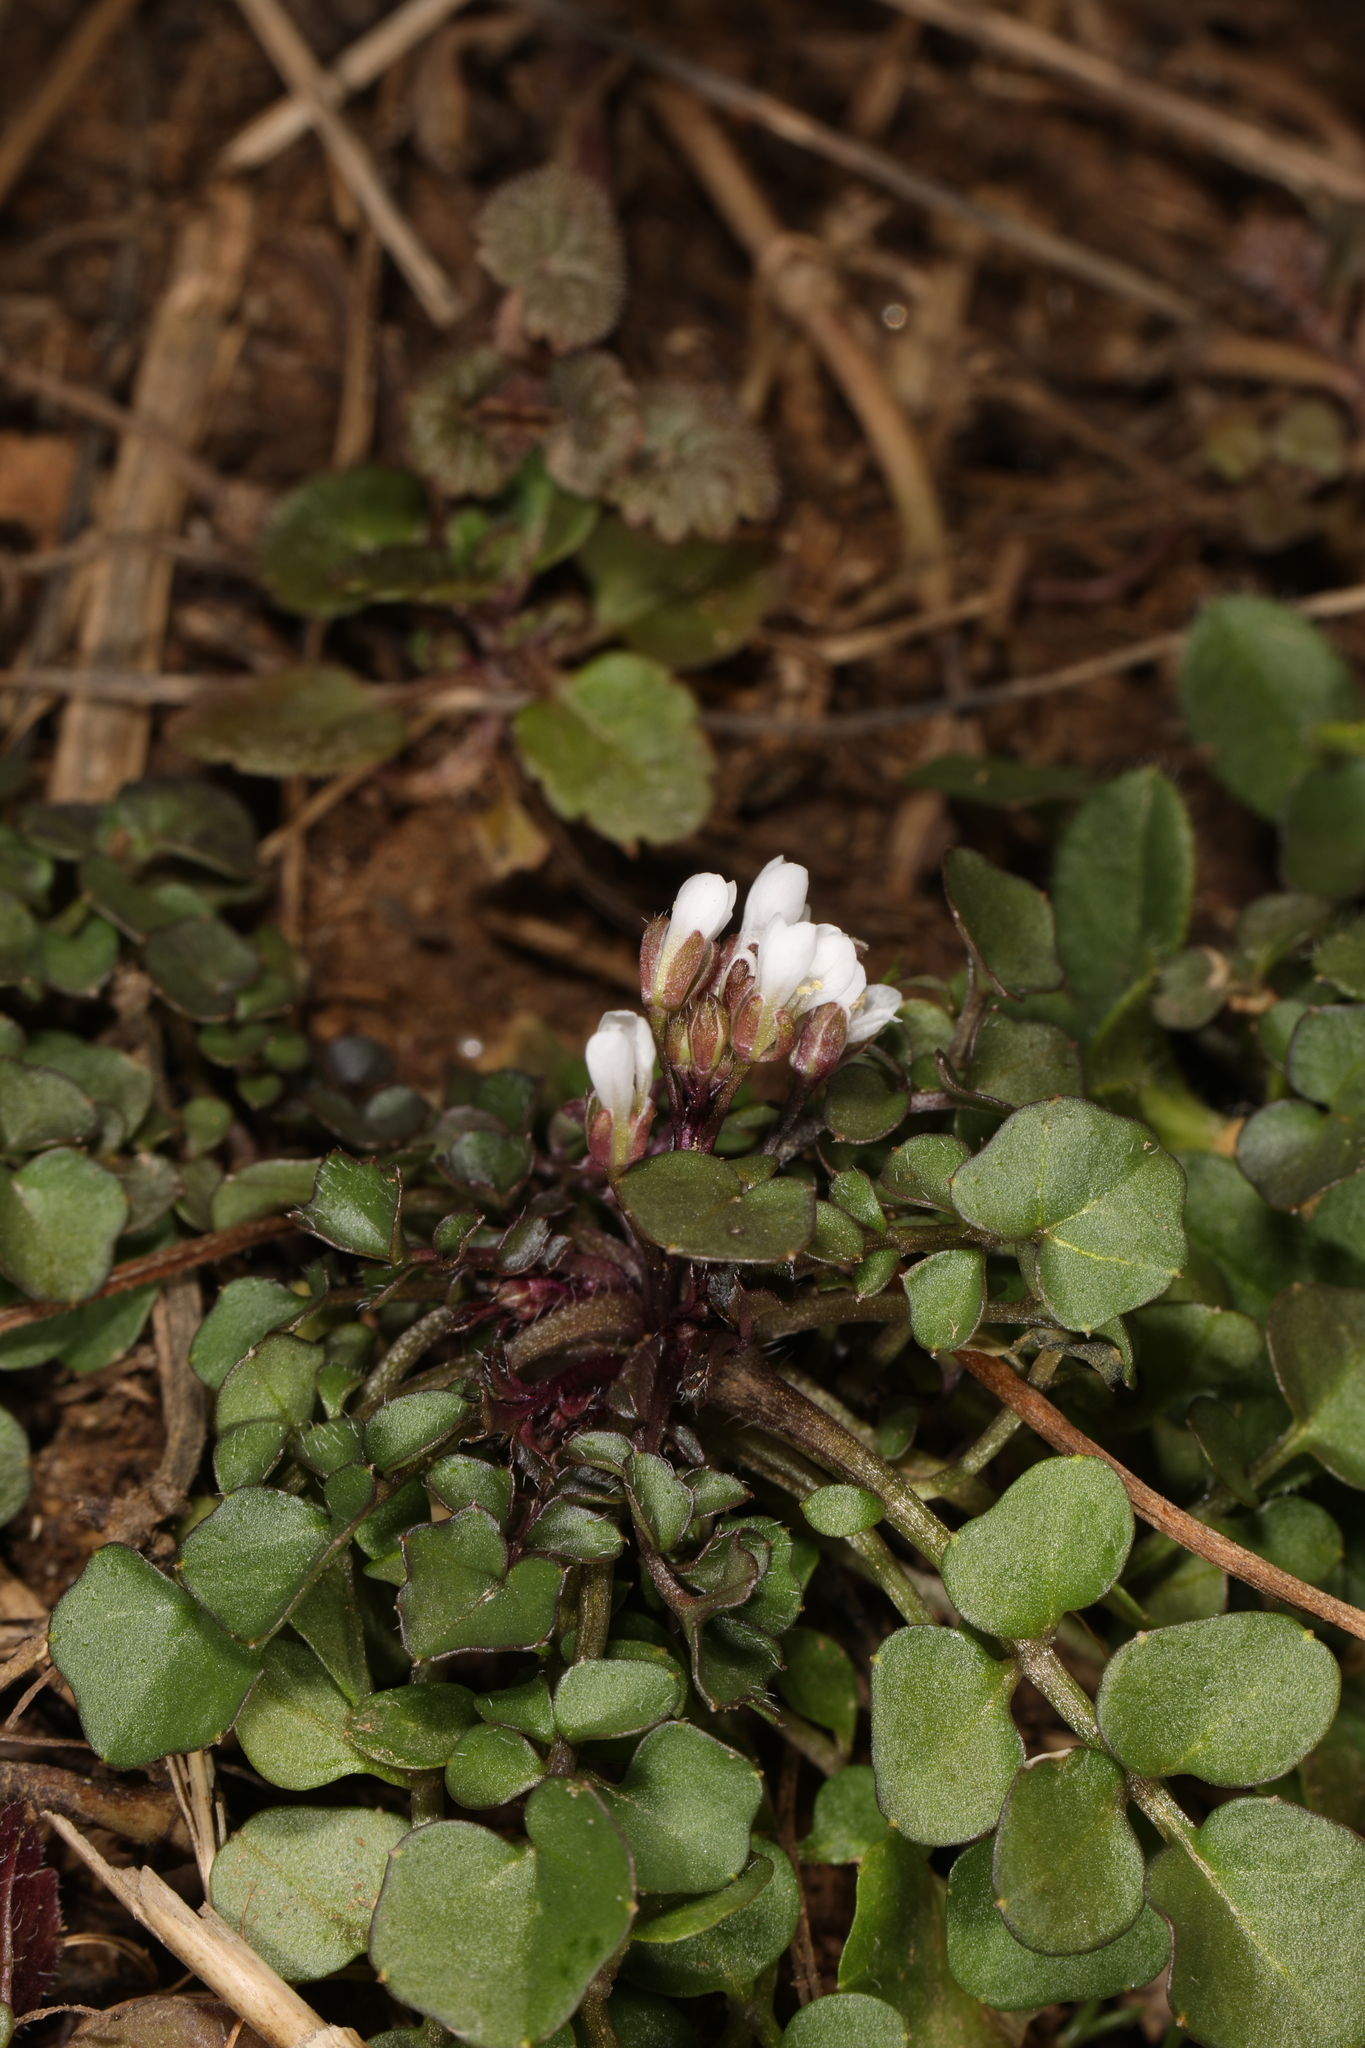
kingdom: Plantae
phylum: Tracheophyta
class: Magnoliopsida
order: Brassicales
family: Brassicaceae
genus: Cardamine
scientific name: Cardamine hirsuta
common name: Hairy bittercress
